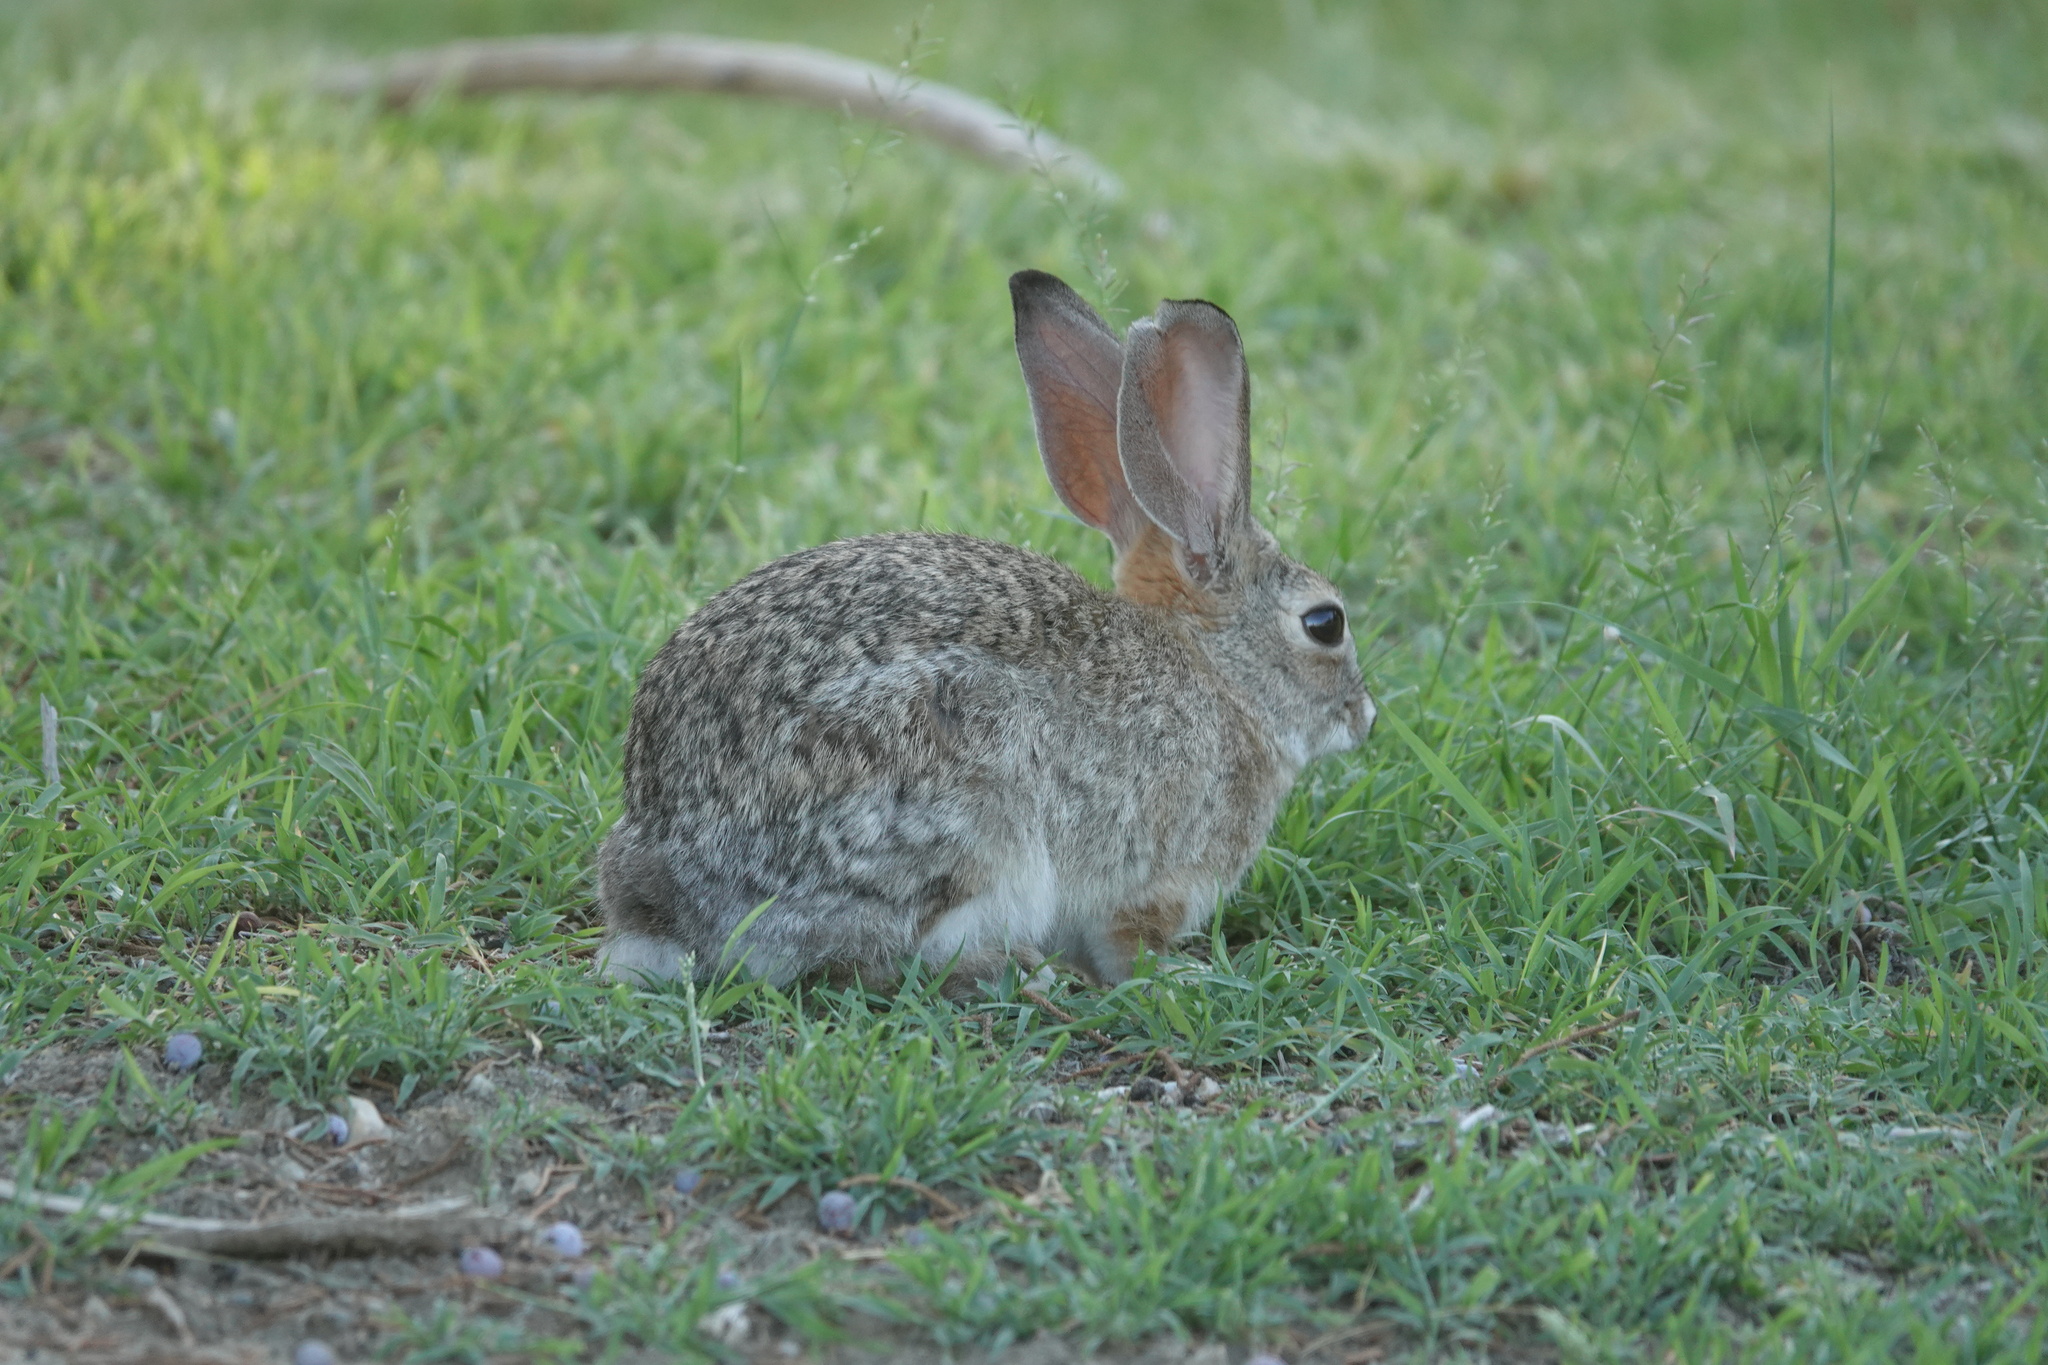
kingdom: Animalia
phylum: Chordata
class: Mammalia
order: Lagomorpha
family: Leporidae
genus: Sylvilagus
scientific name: Sylvilagus audubonii
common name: Desert cottontail
